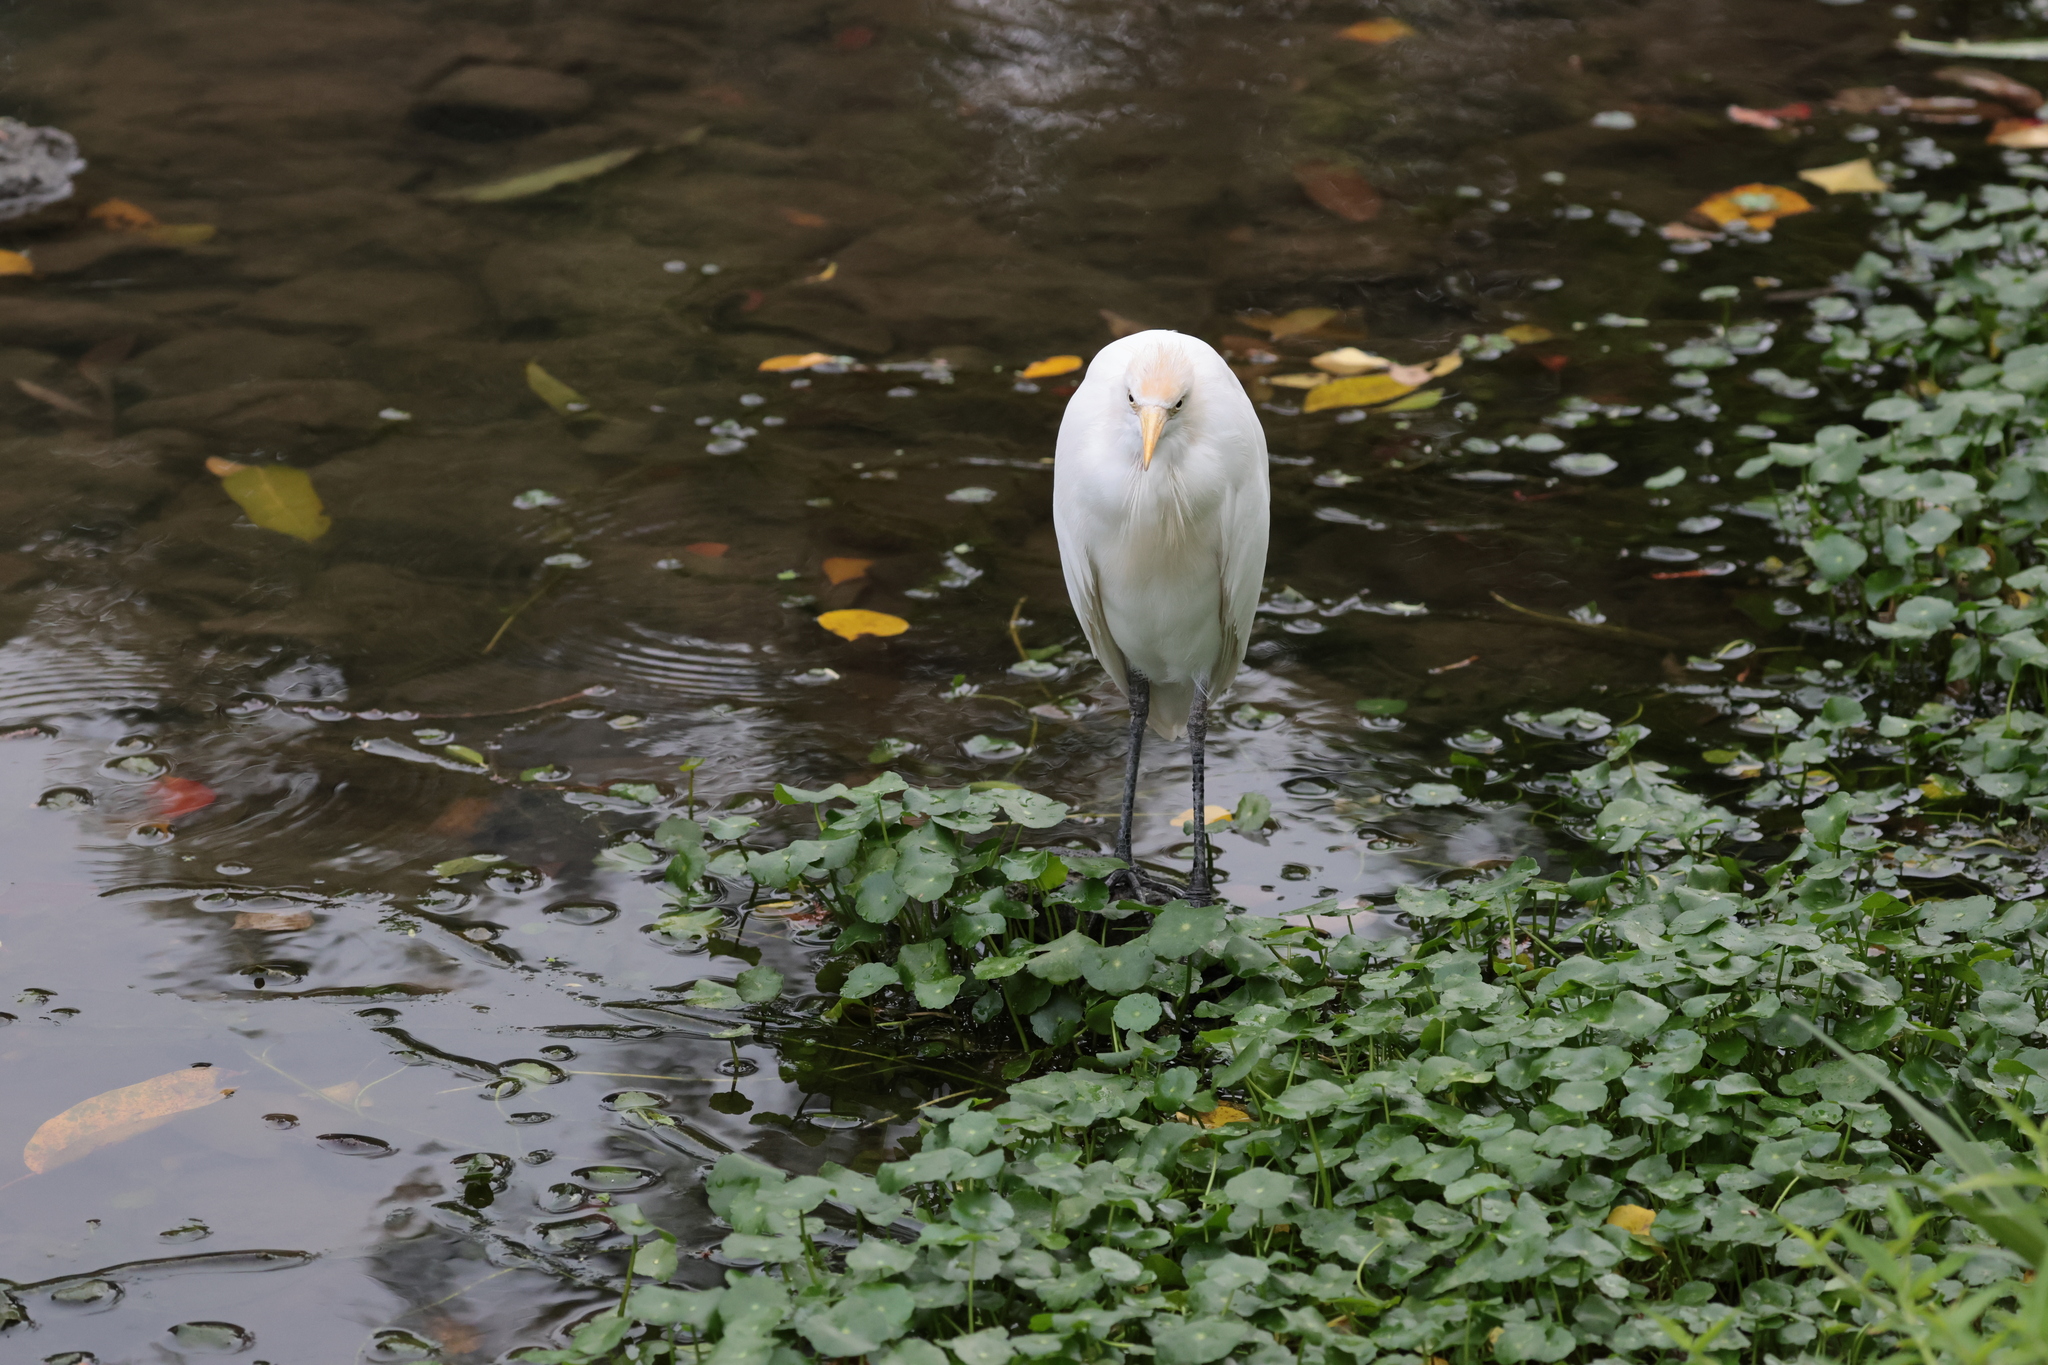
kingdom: Animalia
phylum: Chordata
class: Aves
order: Pelecaniformes
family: Ardeidae
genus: Bubulcus
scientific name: Bubulcus coromandus
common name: Eastern cattle egret
